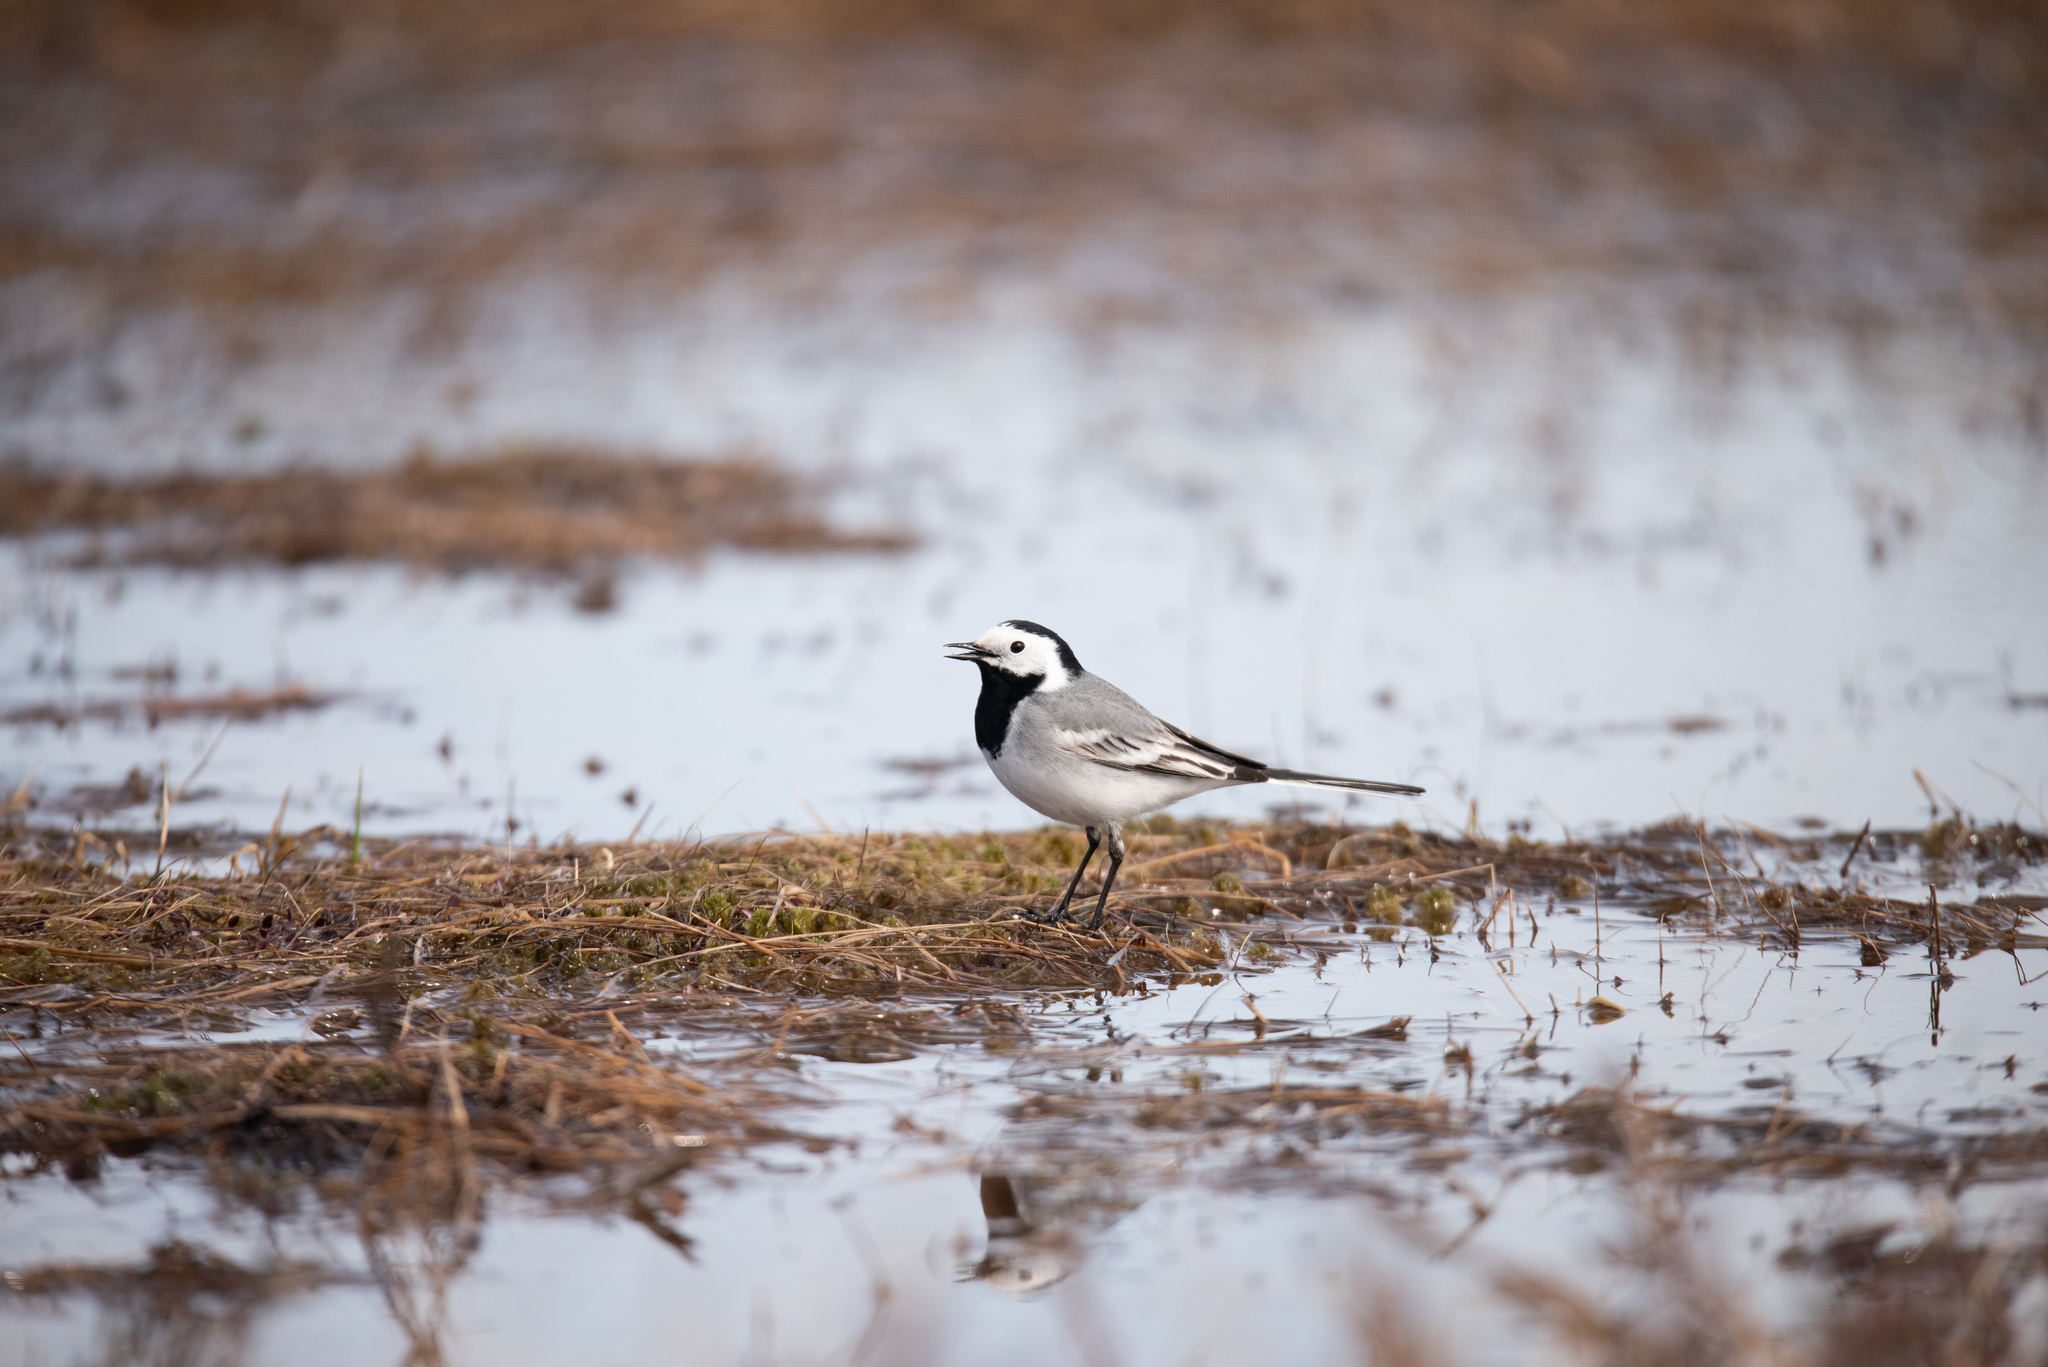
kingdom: Animalia
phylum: Chordata
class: Aves
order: Passeriformes
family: Motacillidae
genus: Motacilla
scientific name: Motacilla alba
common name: White wagtail
